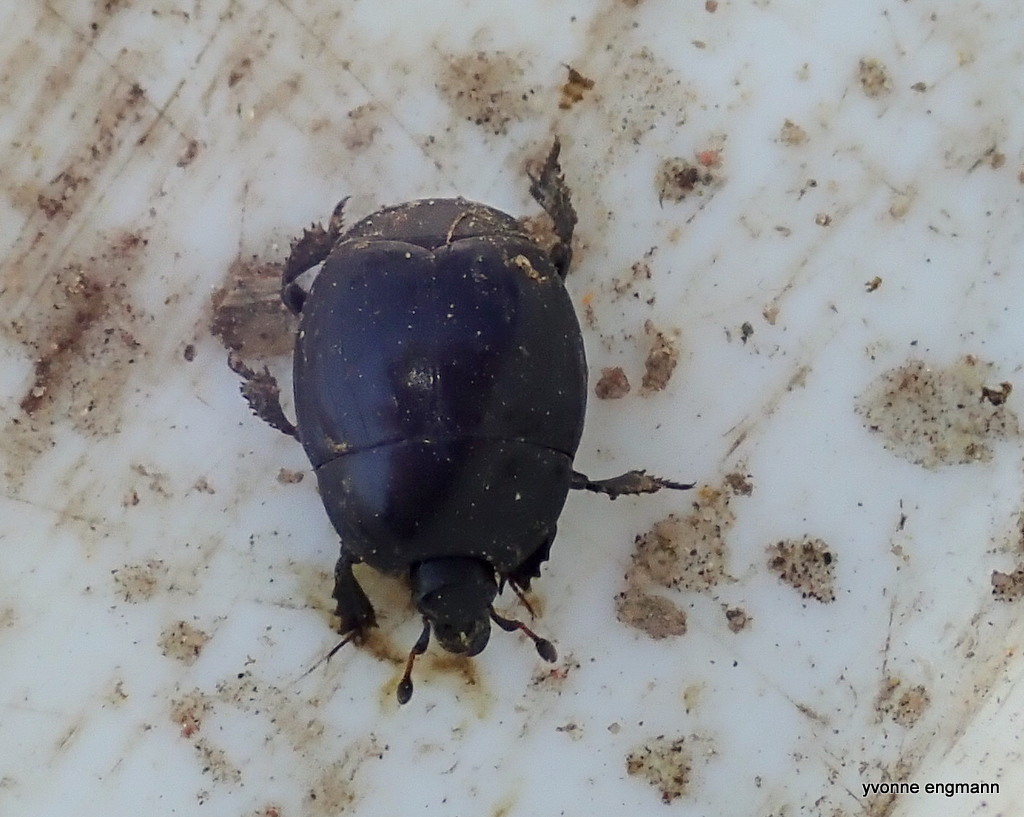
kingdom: Animalia
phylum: Arthropoda
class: Insecta
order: Coleoptera
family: Histeridae
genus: Hister
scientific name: Hister unicolor
